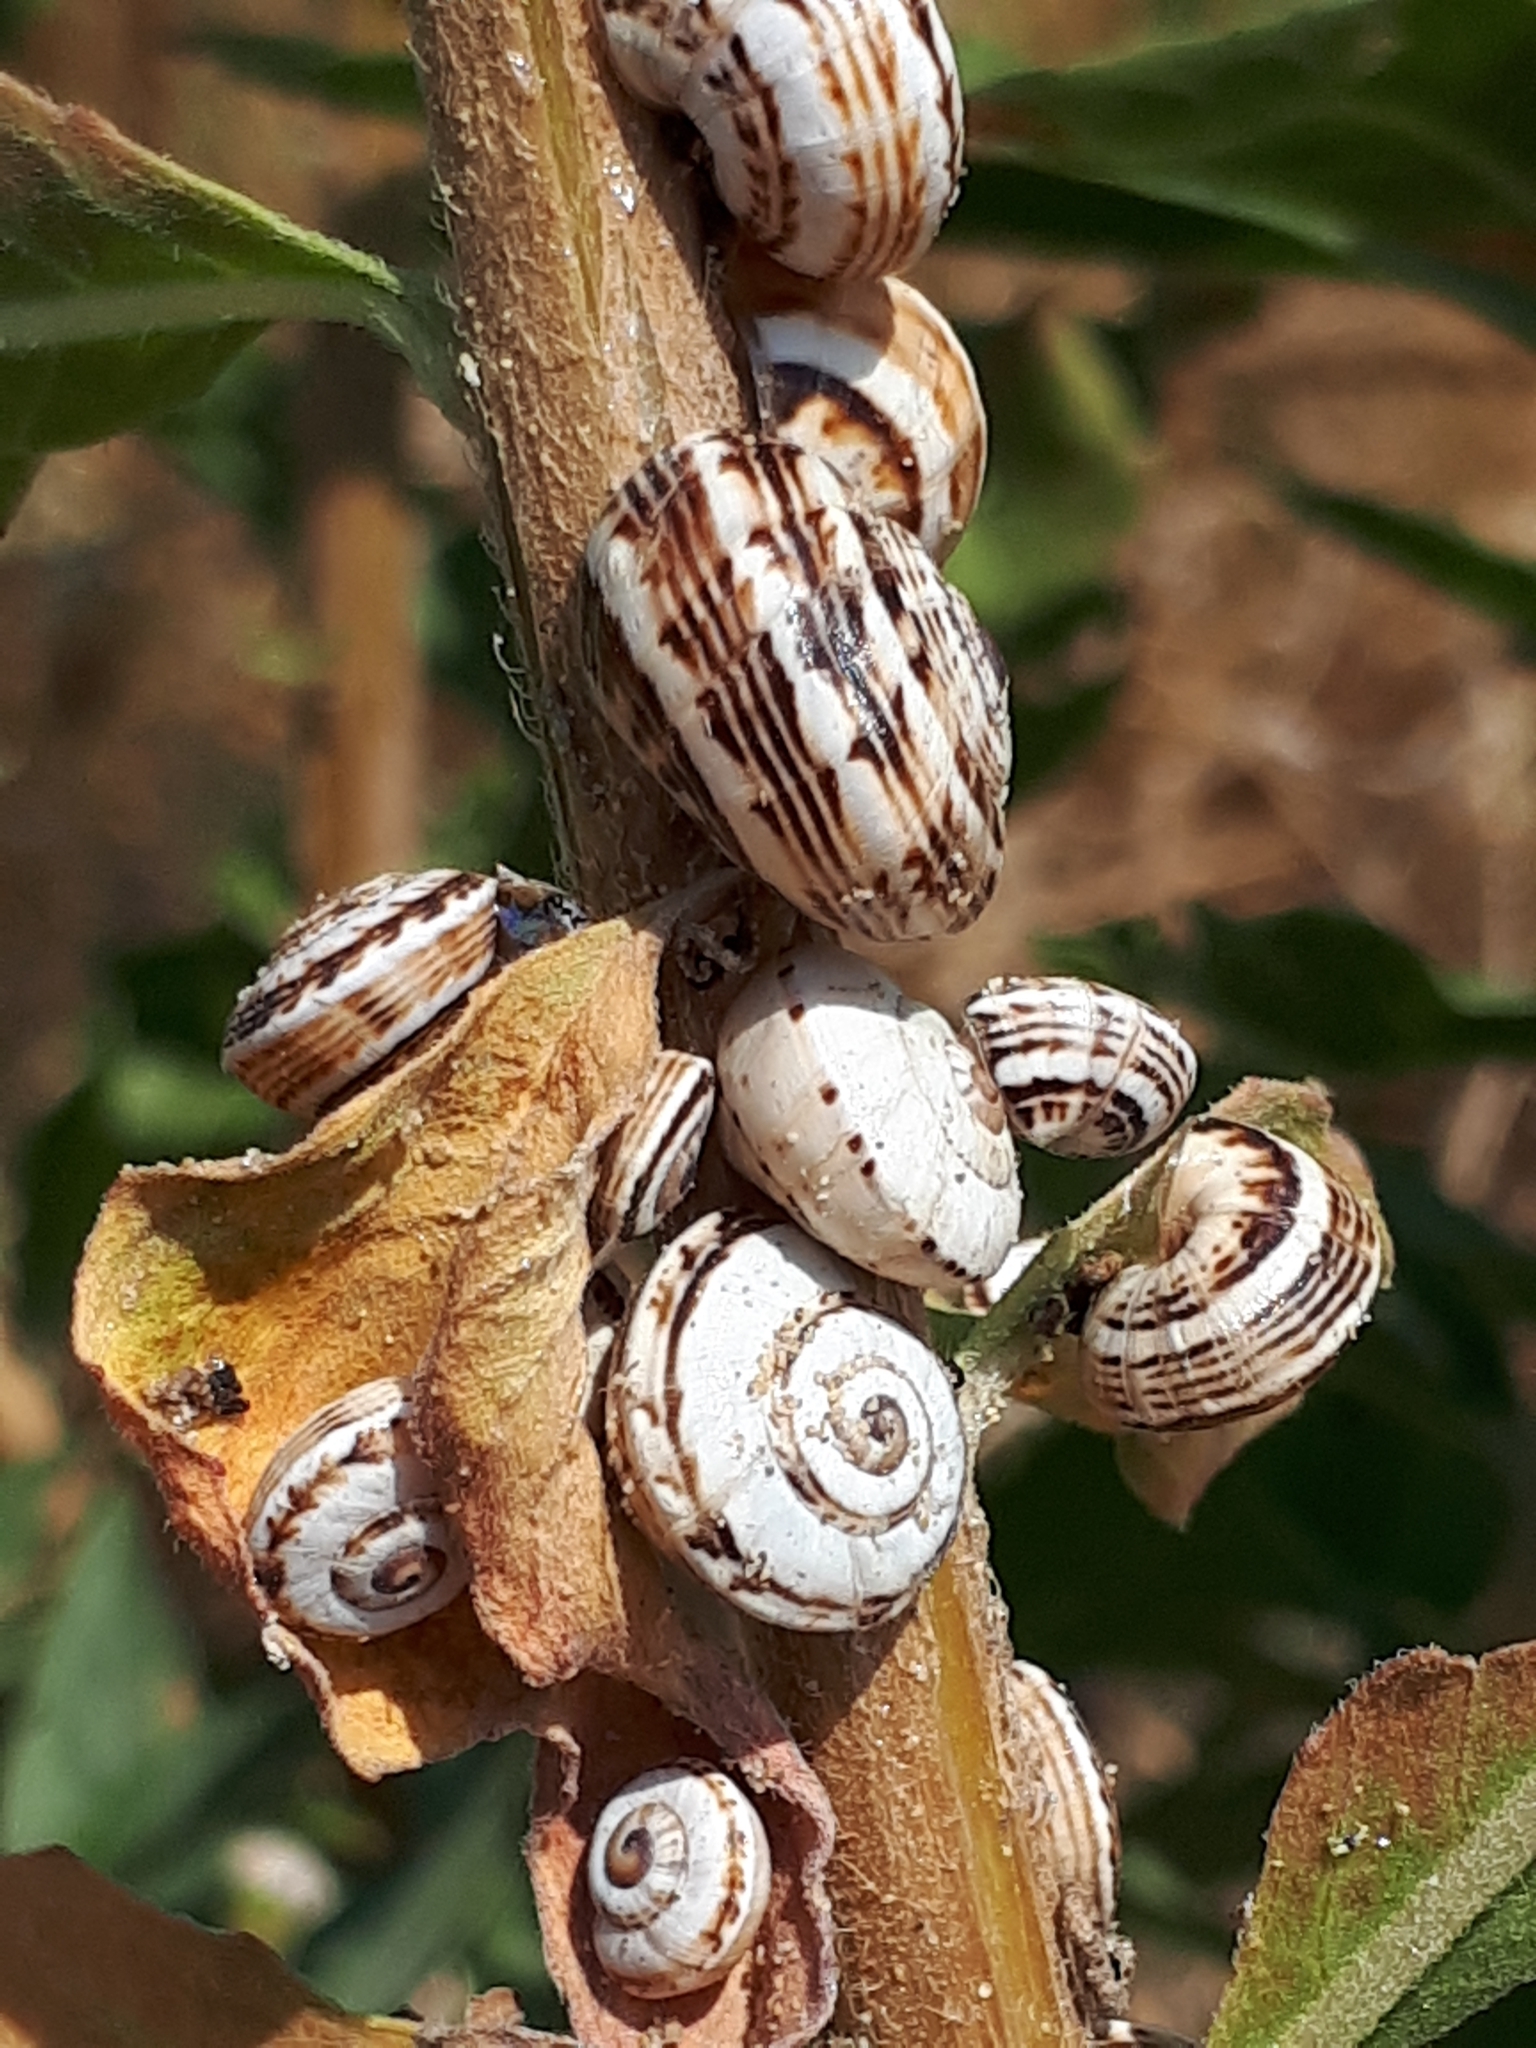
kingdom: Animalia
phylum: Mollusca
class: Gastropoda
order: Stylommatophora
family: Helicidae
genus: Theba
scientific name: Theba pisana
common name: White snail
